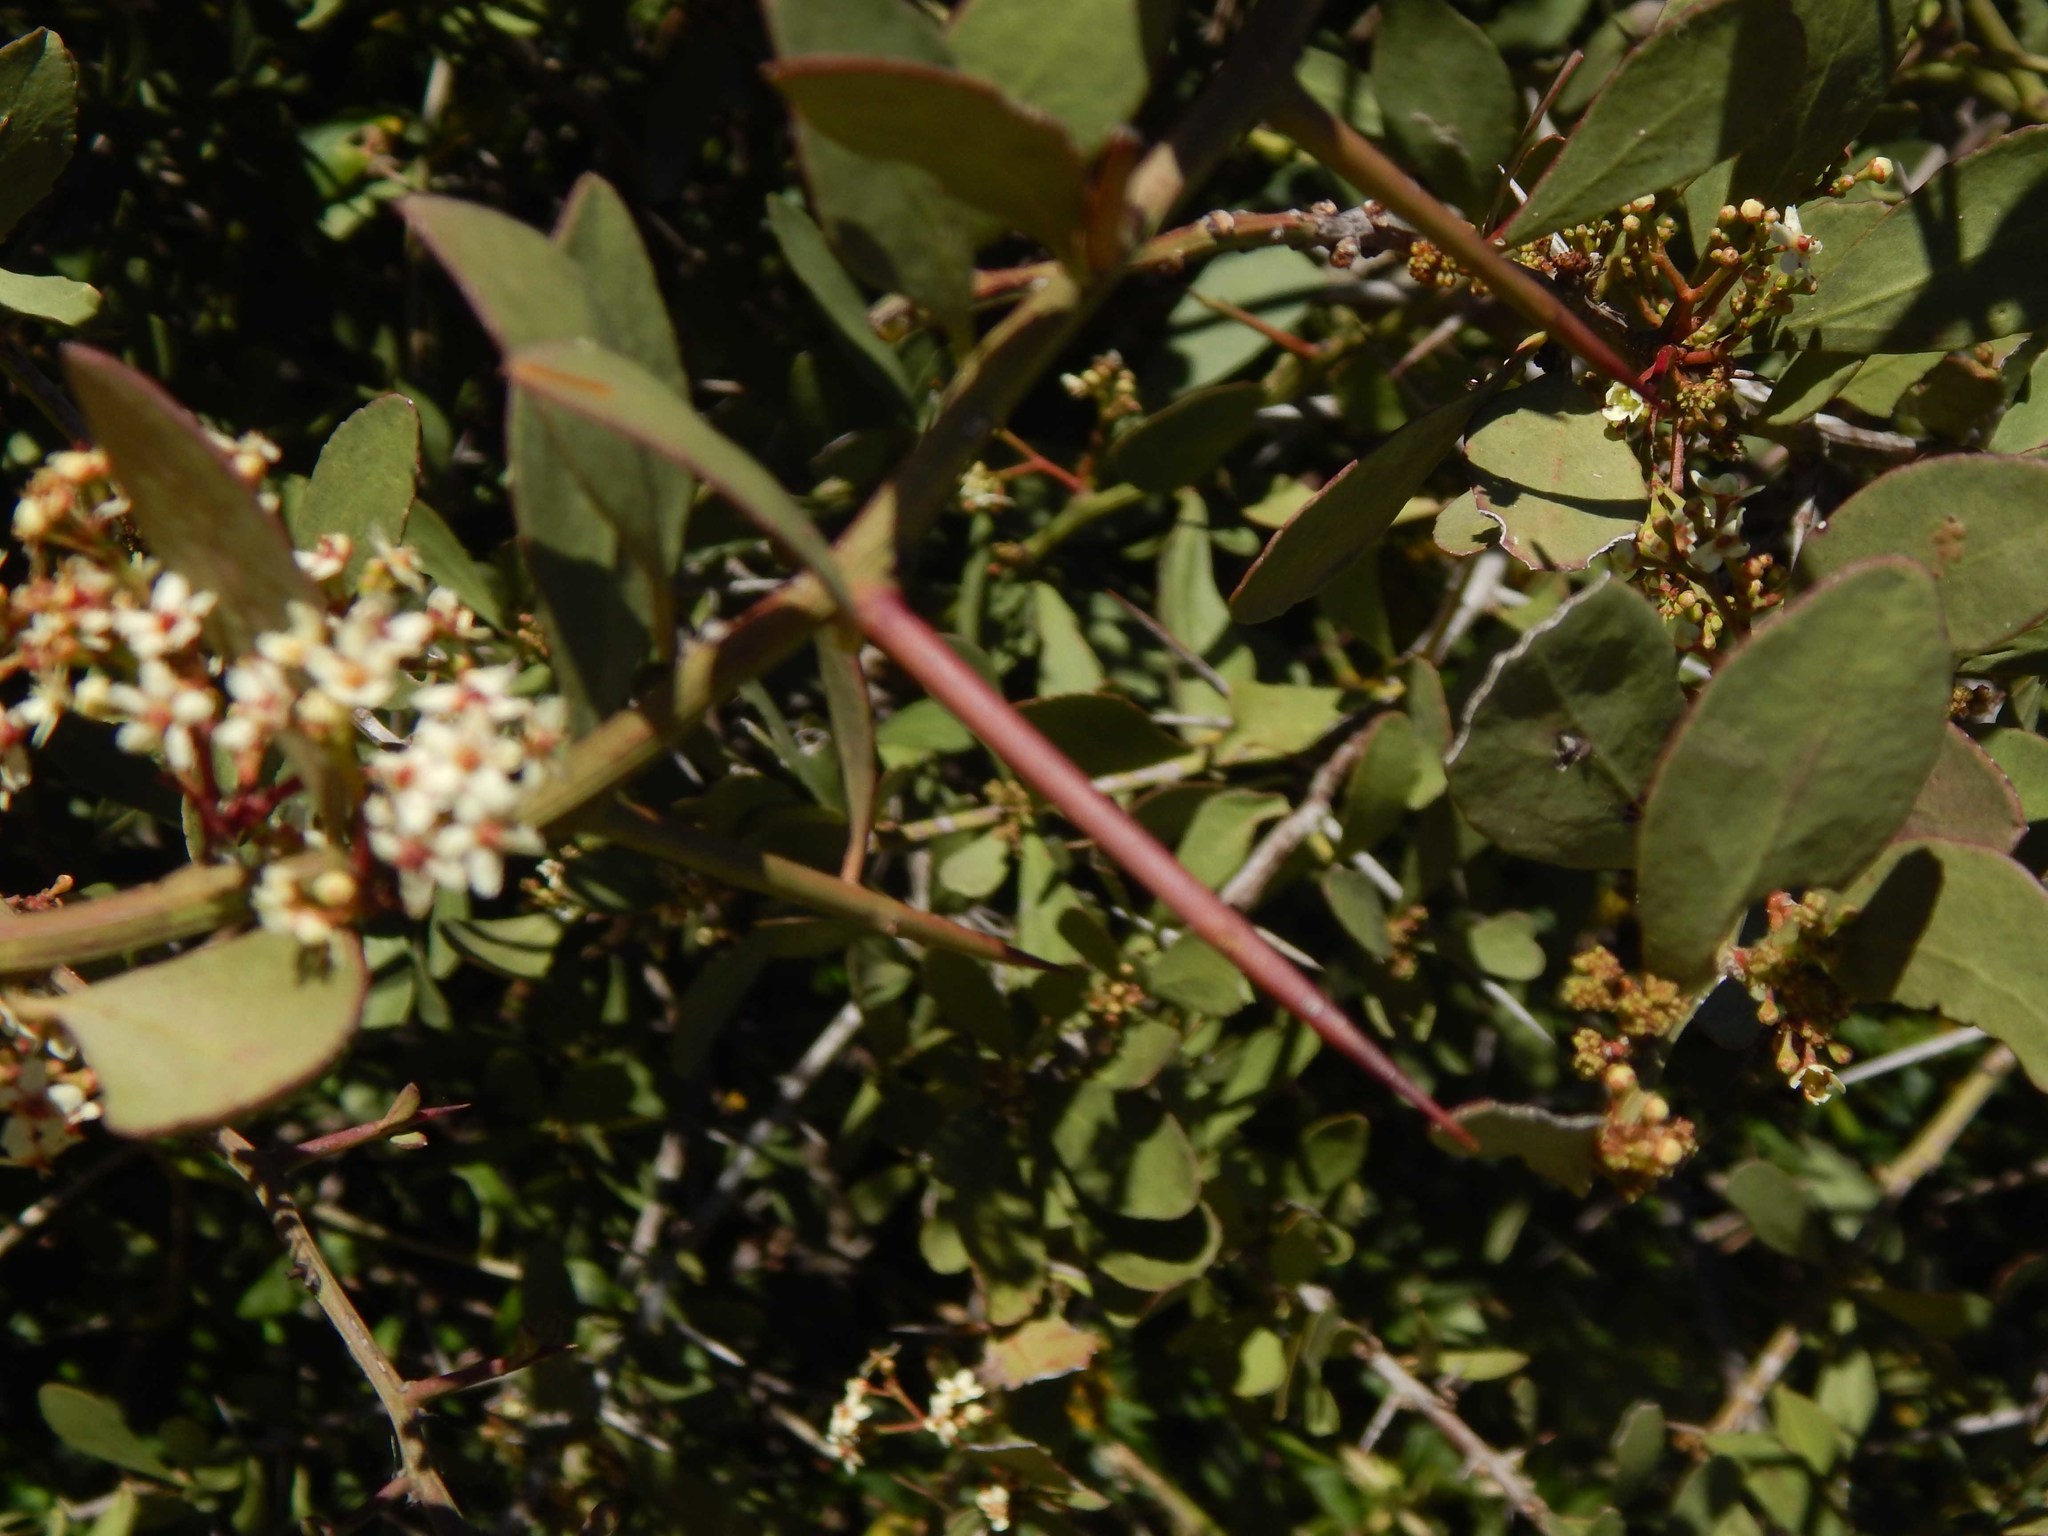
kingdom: Plantae
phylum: Tracheophyta
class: Magnoliopsida
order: Celastrales
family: Celastraceae
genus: Gymnosporia
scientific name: Gymnosporia buxifolia
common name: Common spike-thorn
